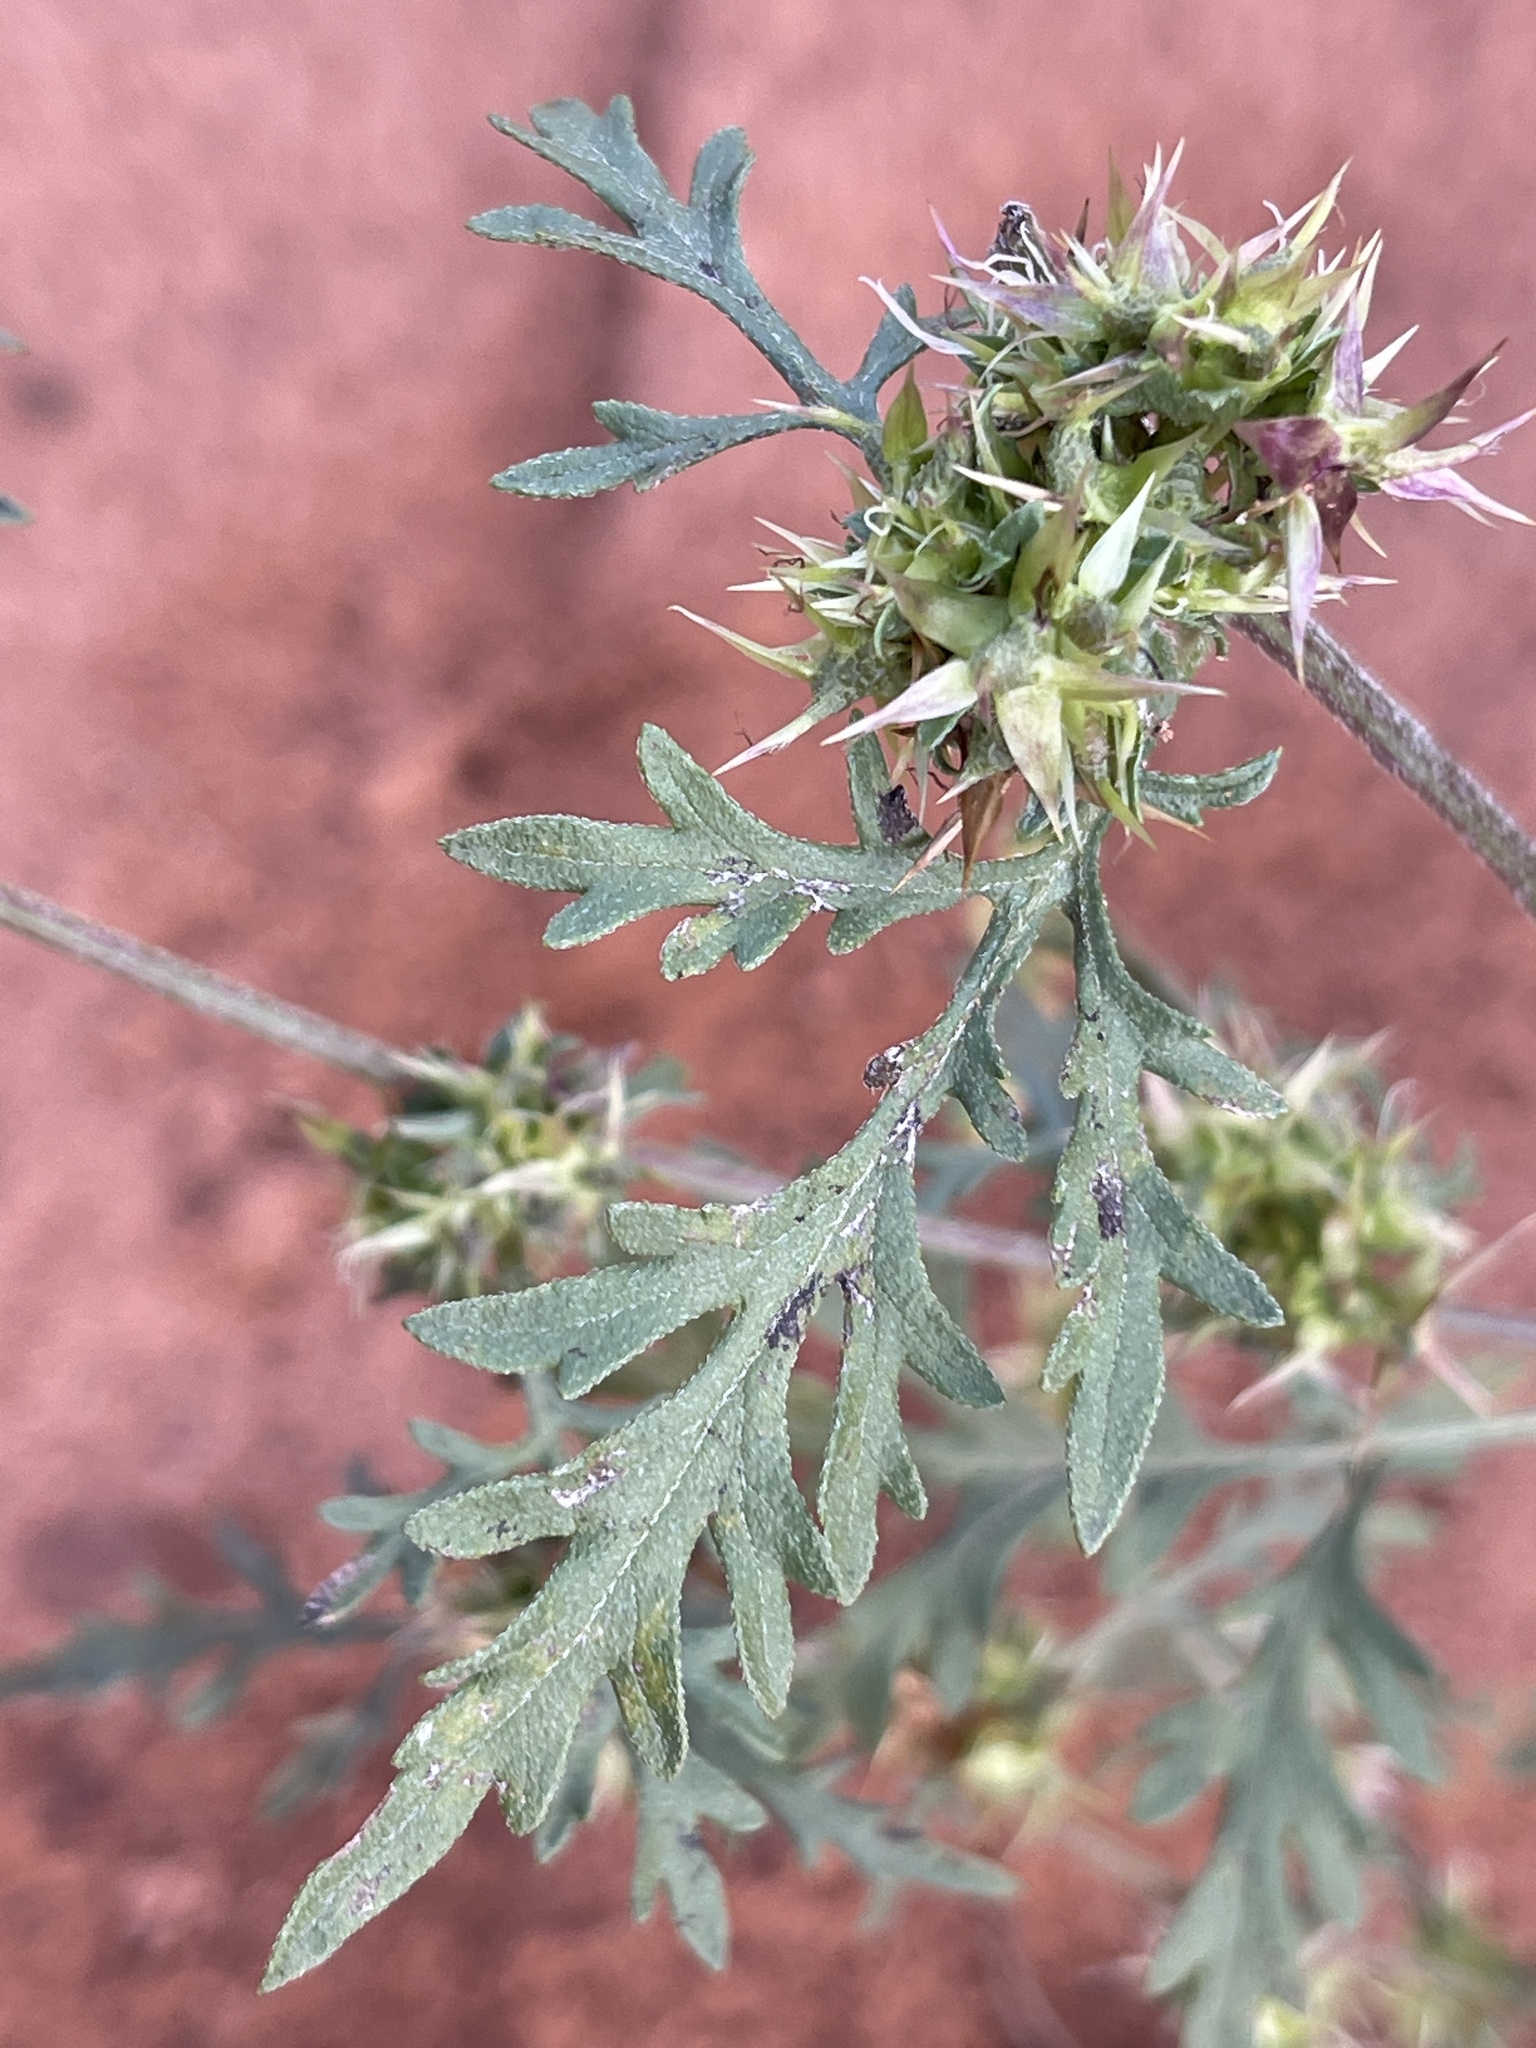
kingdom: Plantae
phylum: Tracheophyta
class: Magnoliopsida
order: Asterales
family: Asteraceae
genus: Ambrosia
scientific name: Ambrosia acanthicarpa
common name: Hooker's bur ragweed
